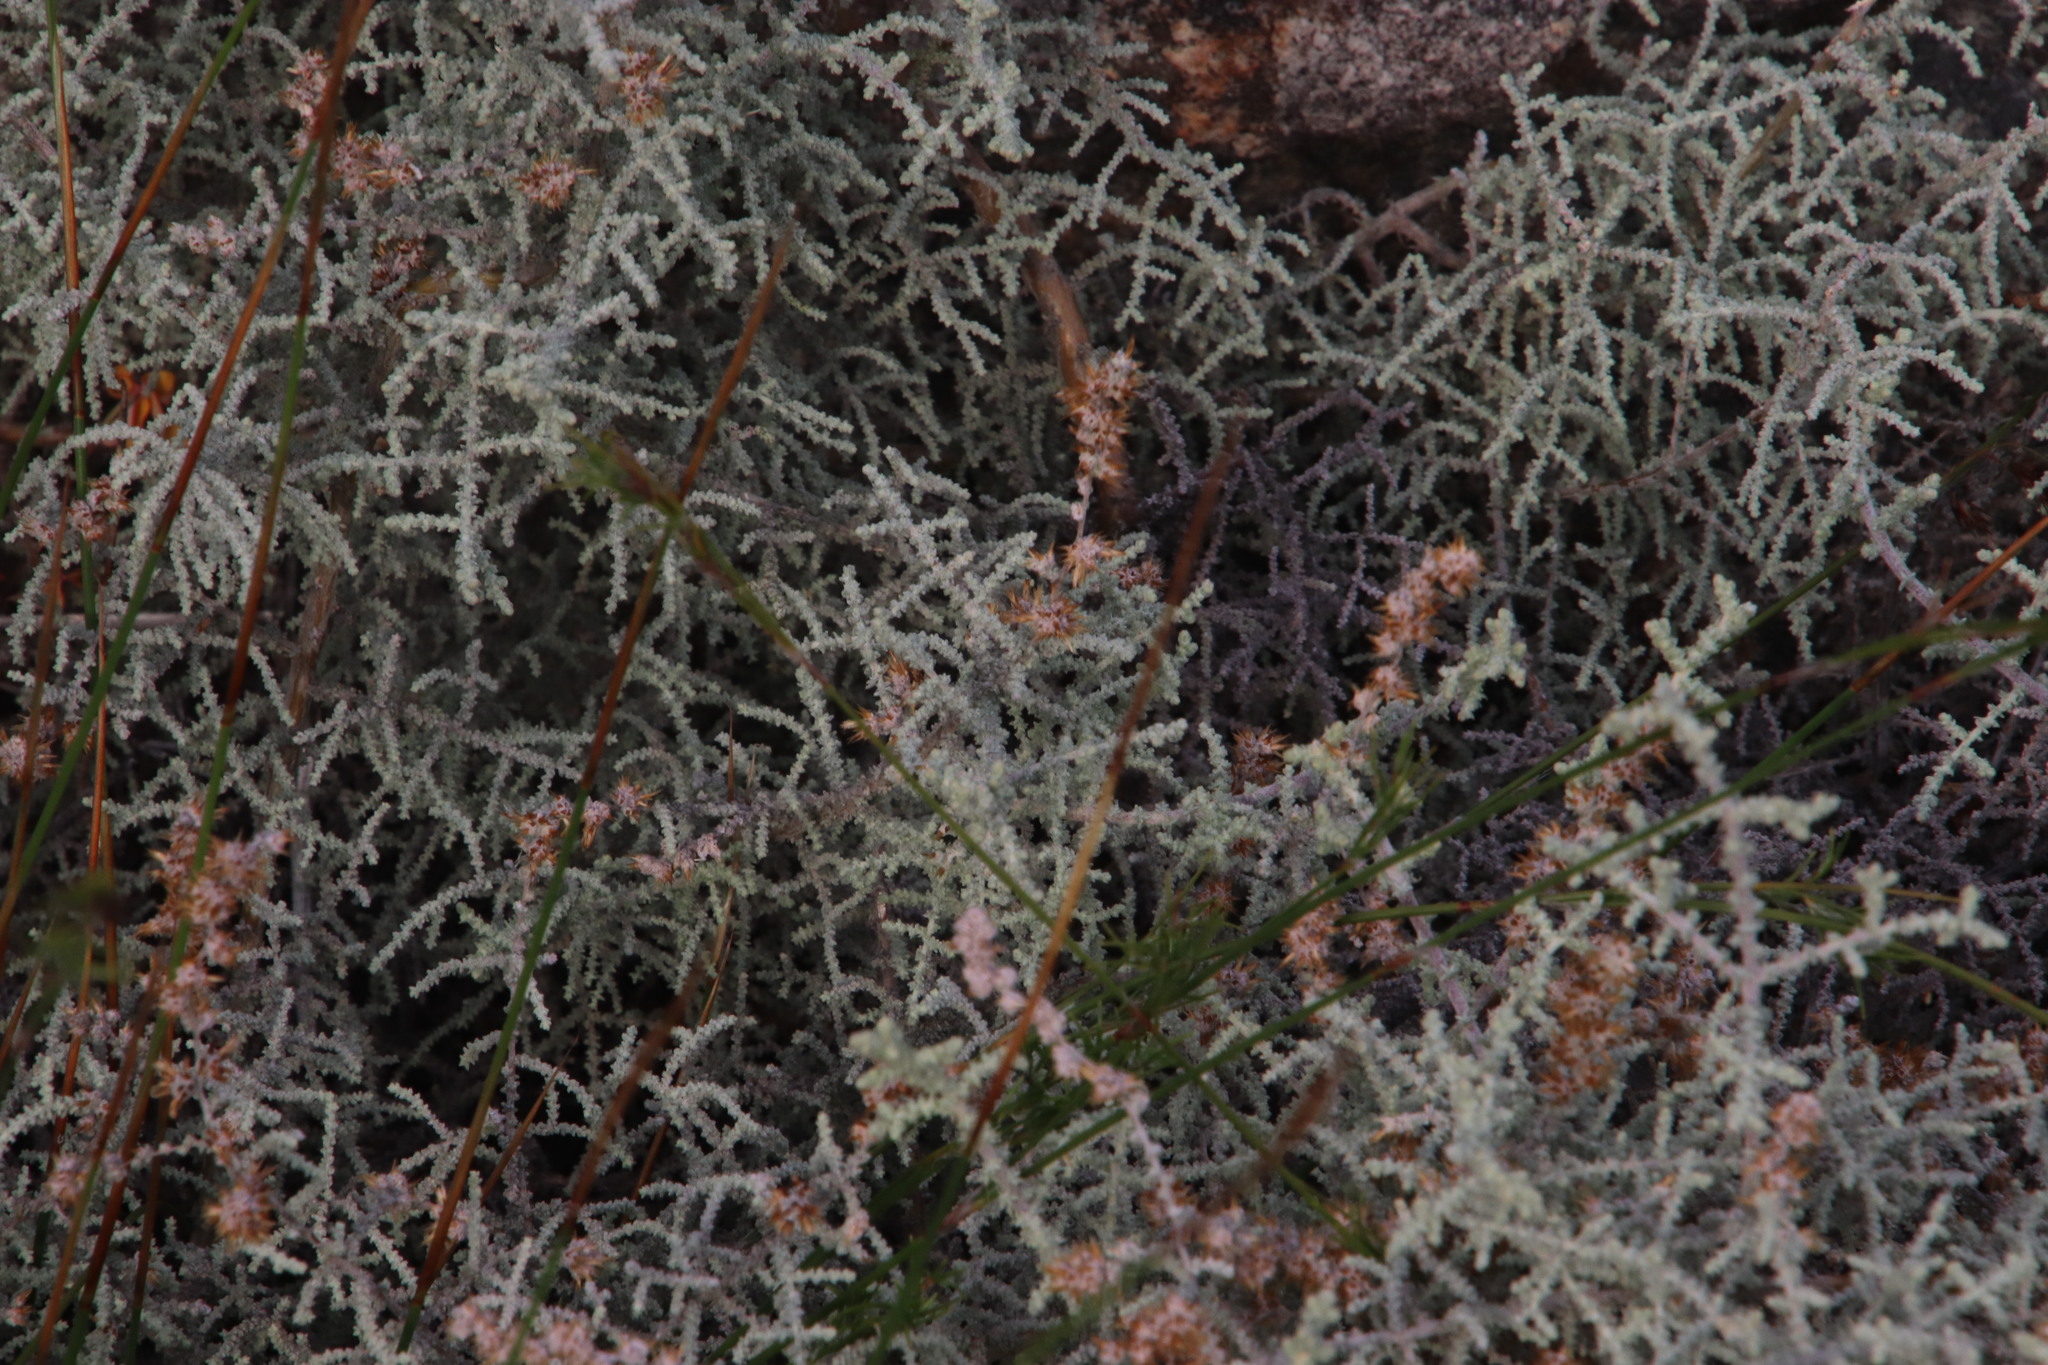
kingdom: Plantae
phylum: Tracheophyta
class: Magnoliopsida
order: Asterales
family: Asteraceae
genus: Seriphium
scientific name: Seriphium plumosum
